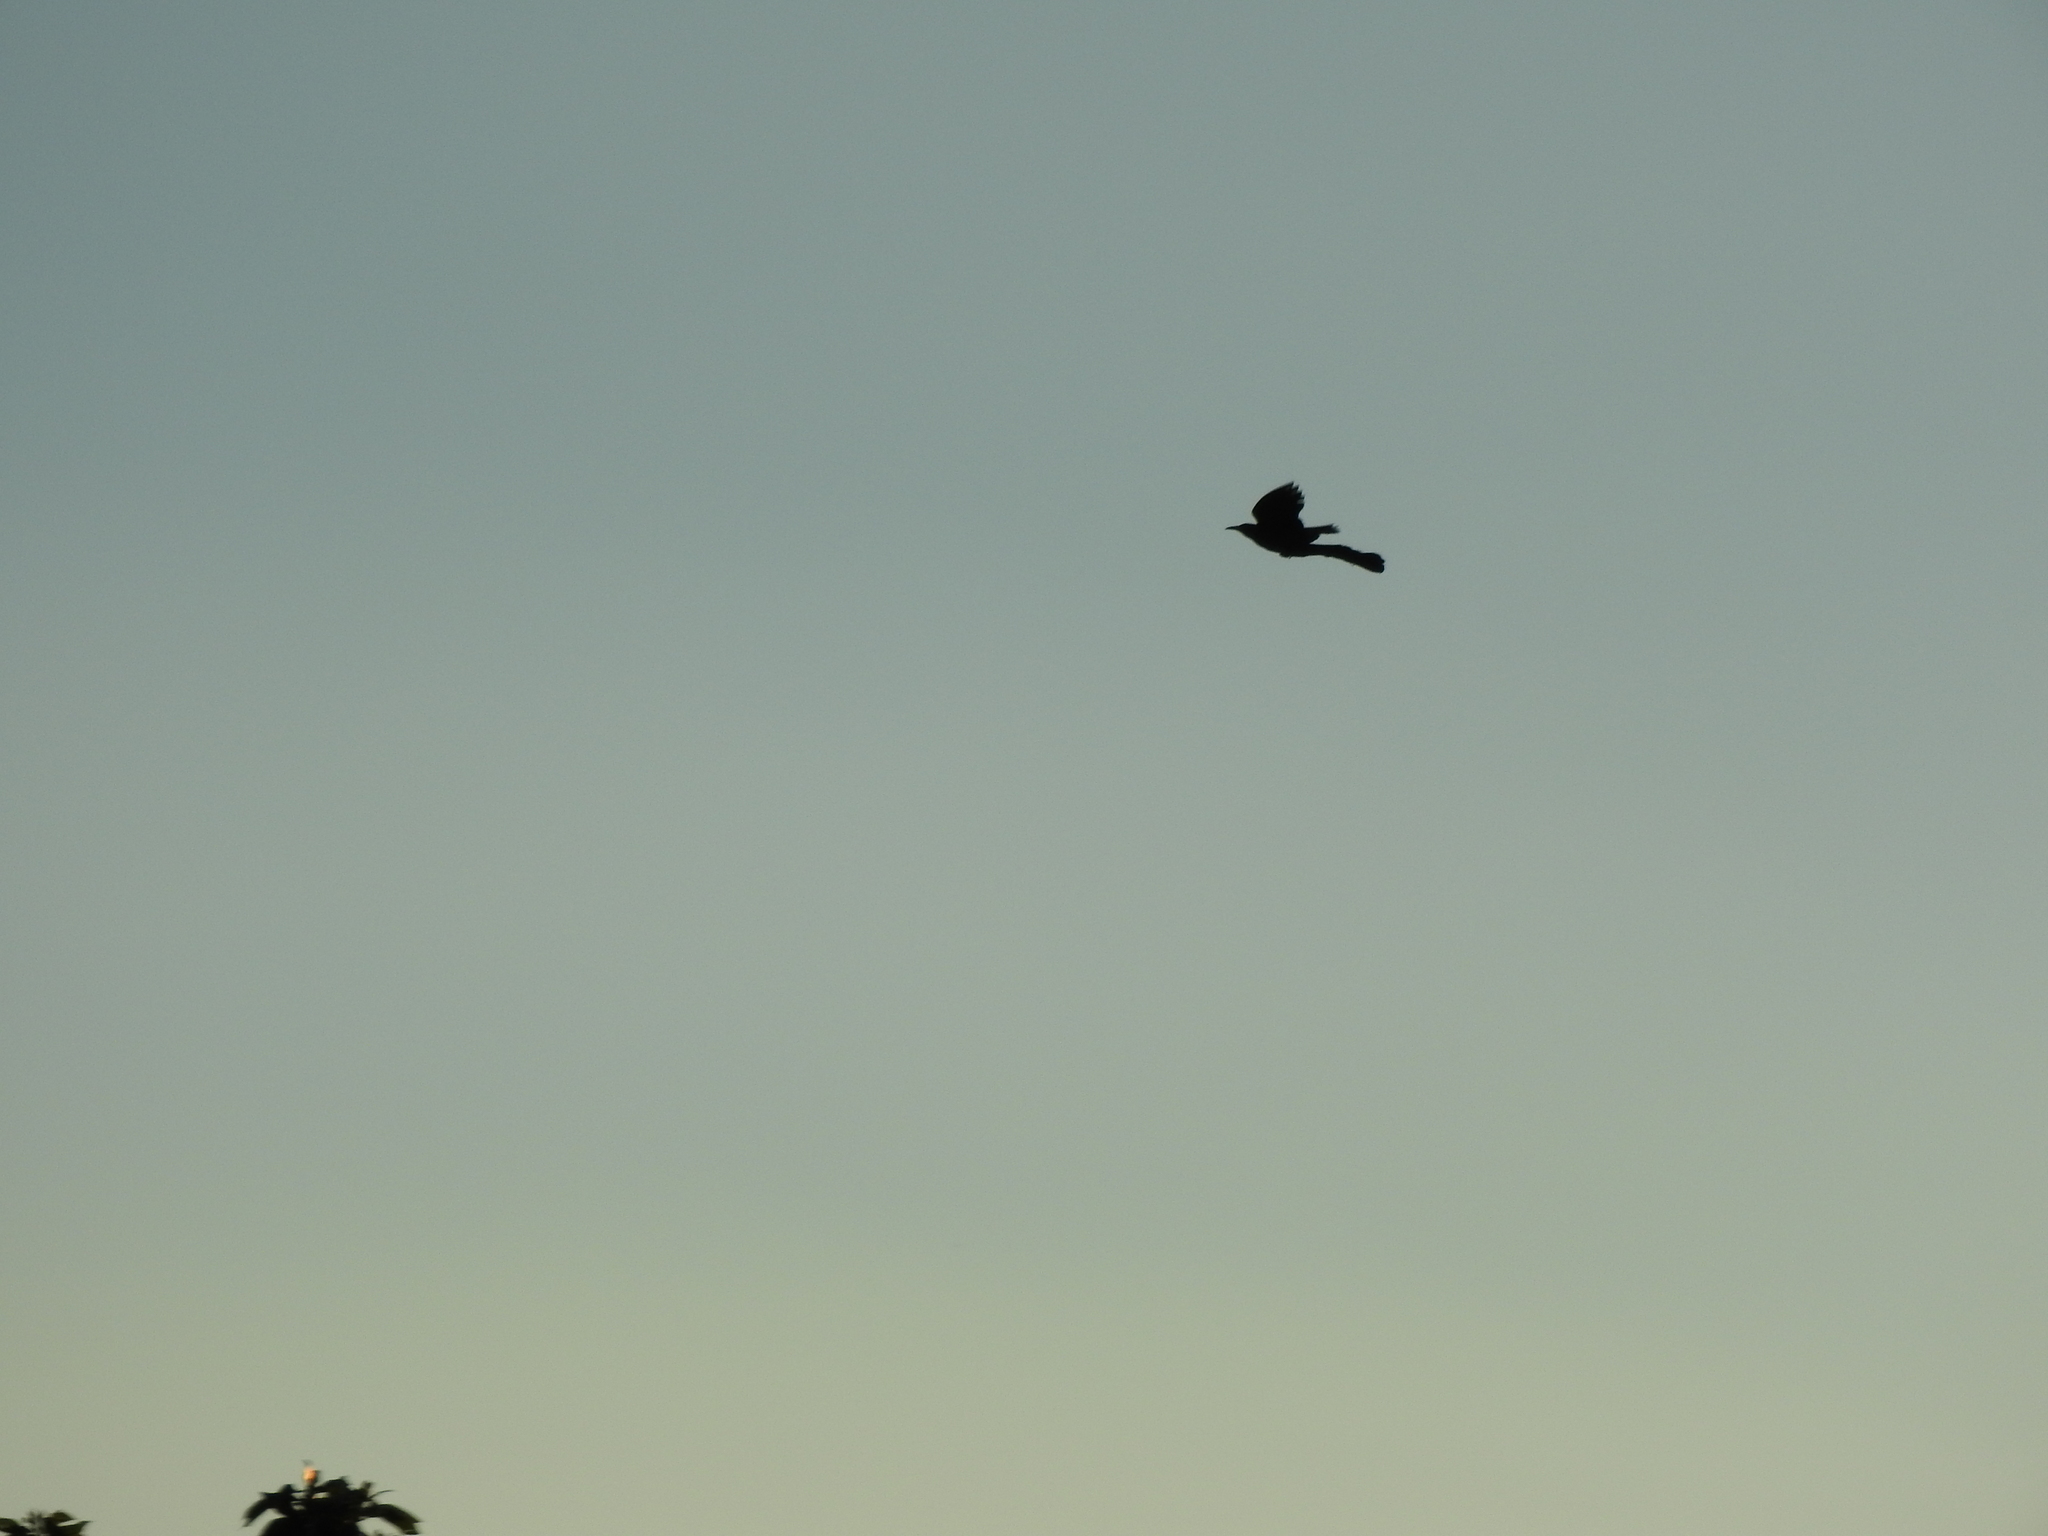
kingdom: Animalia
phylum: Chordata
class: Aves
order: Passeriformes
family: Icteridae
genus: Quiscalus
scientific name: Quiscalus mexicanus
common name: Great-tailed grackle
